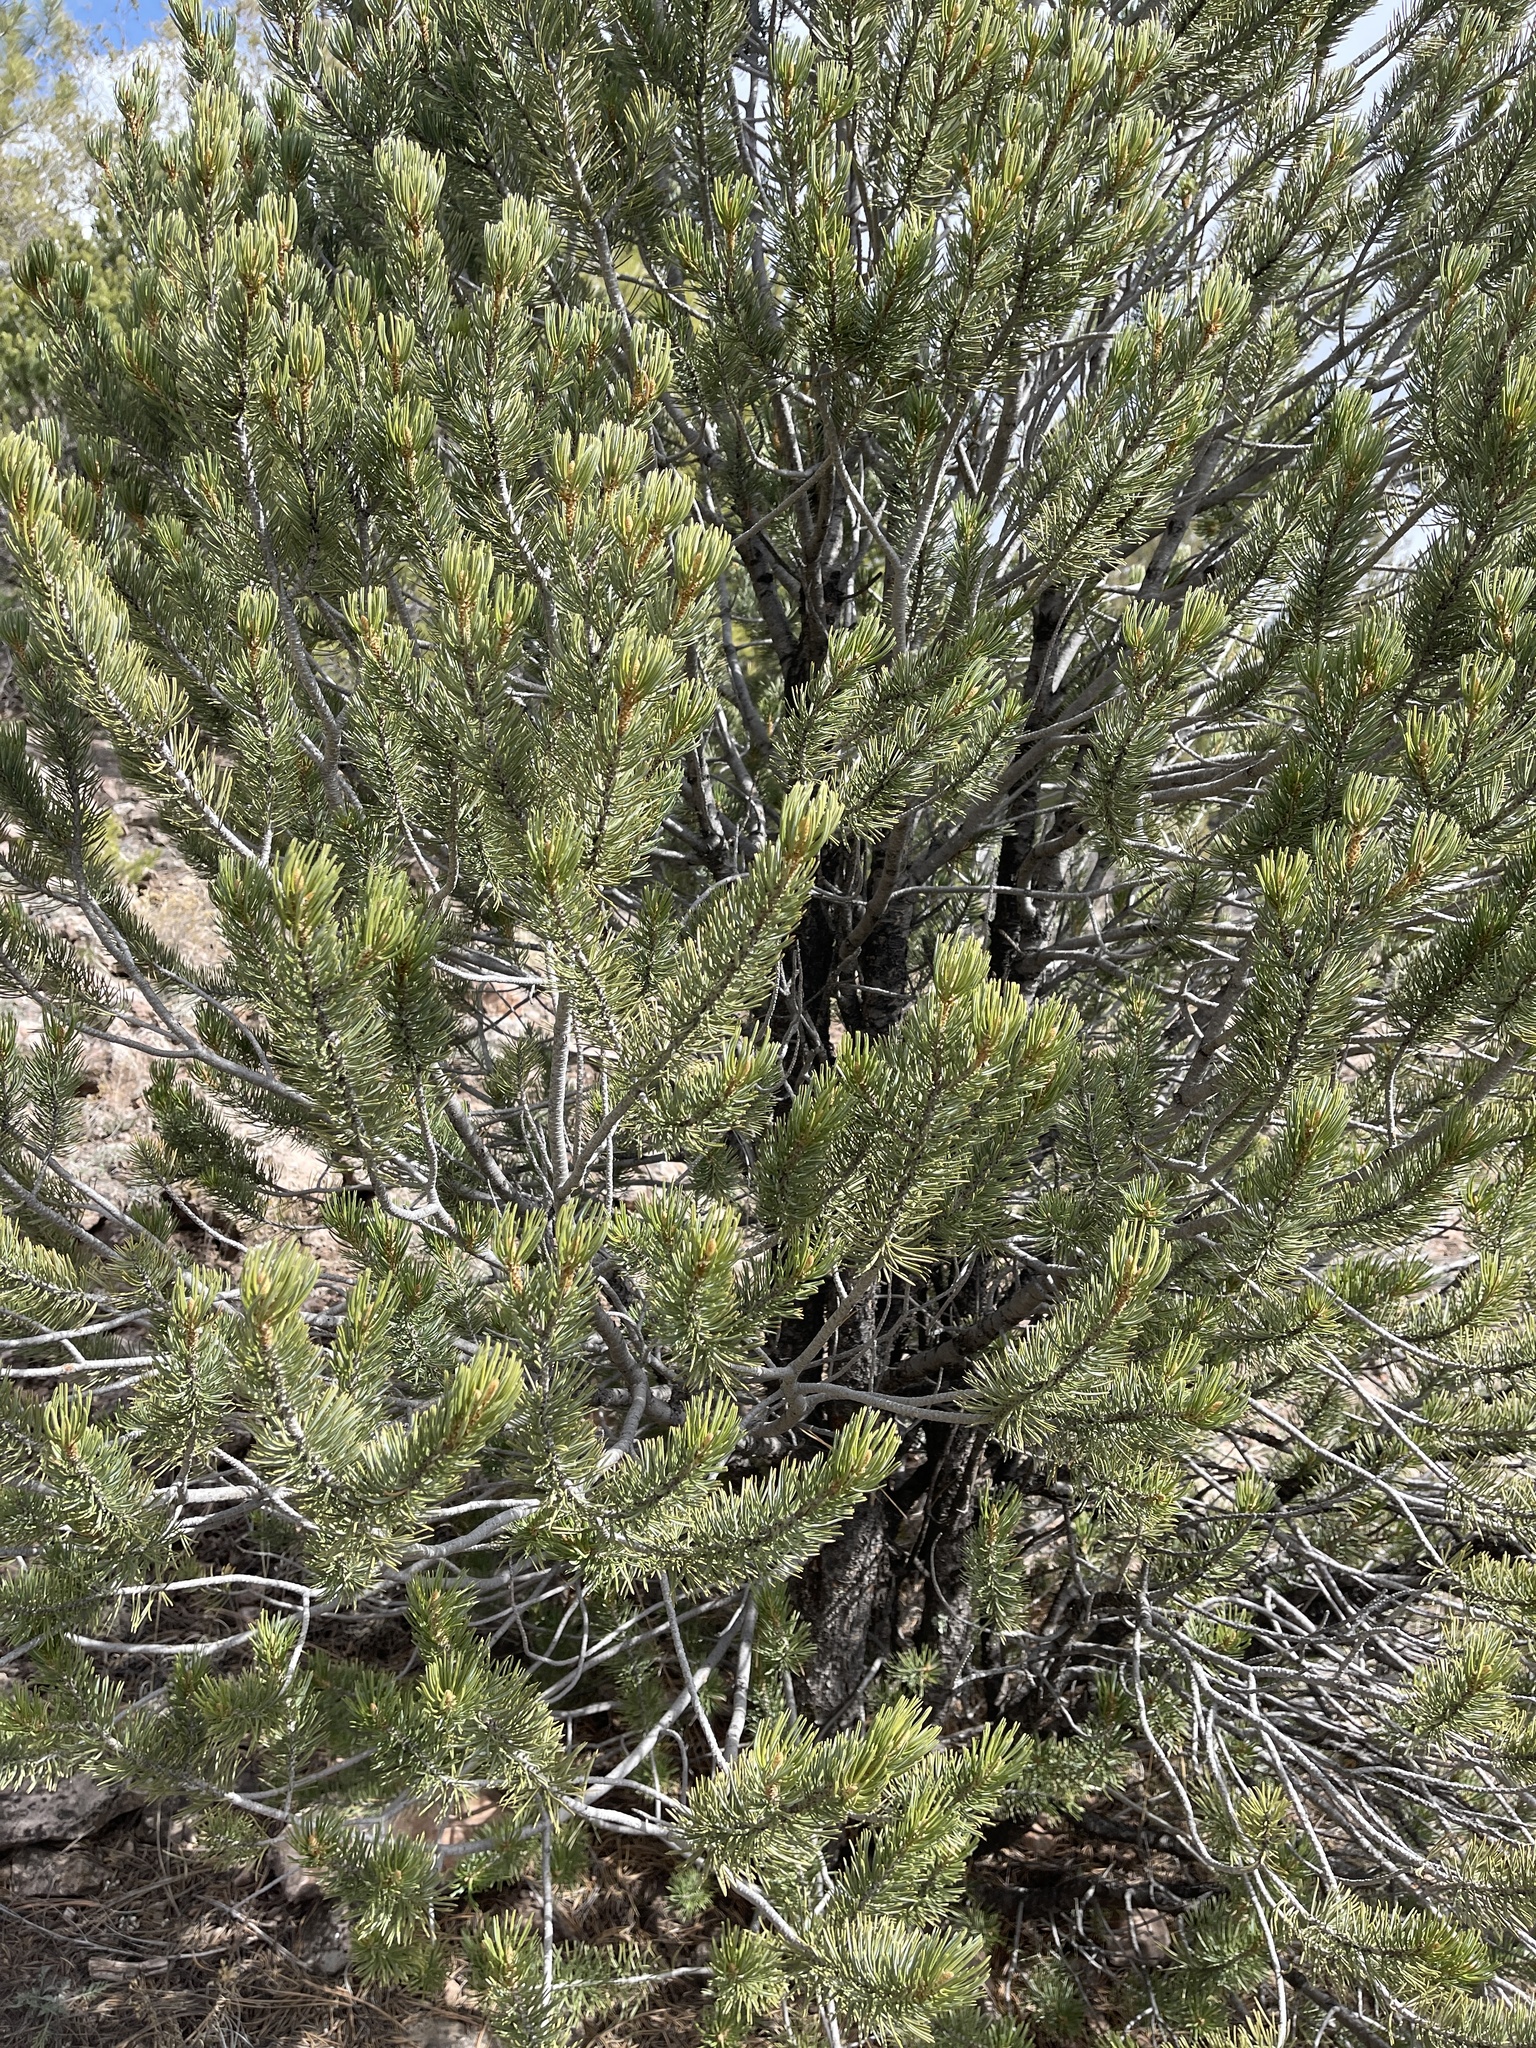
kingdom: Plantae
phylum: Tracheophyta
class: Pinopsida
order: Pinales
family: Pinaceae
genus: Pinus
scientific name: Pinus edulis
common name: Colorado pinyon
